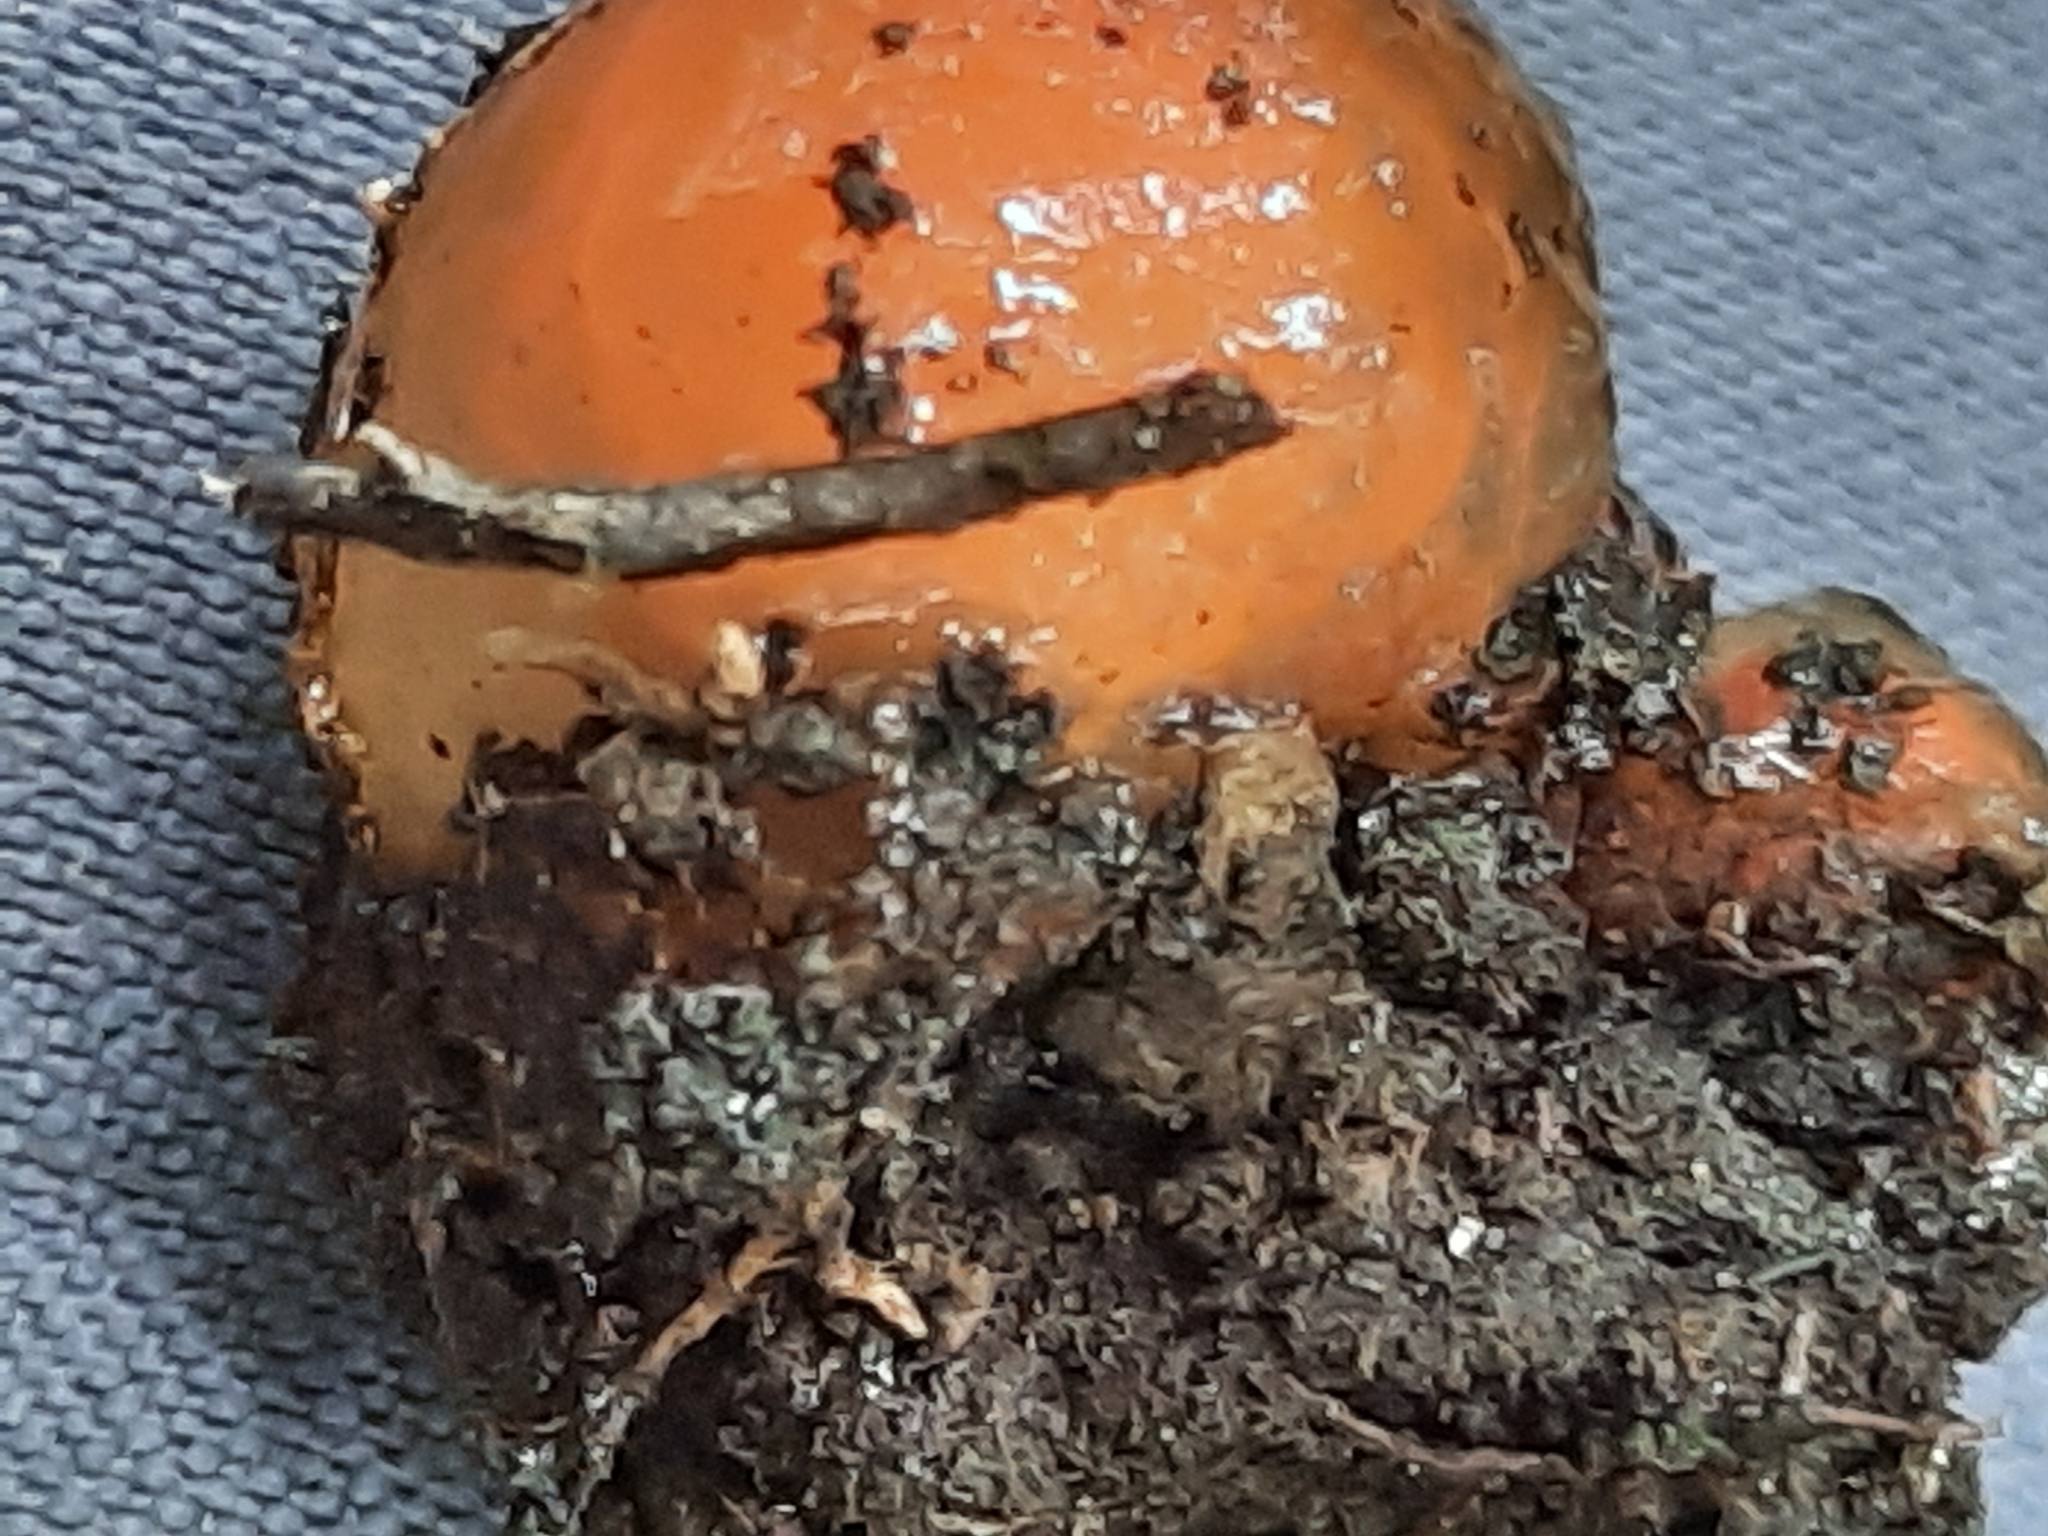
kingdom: Fungi
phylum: Basidiomycota
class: Agaricomycetes
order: Boletales
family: Calostomataceae
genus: Calostoma
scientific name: Calostoma cinnabarinum
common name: Stalked puffball-in-aspic
